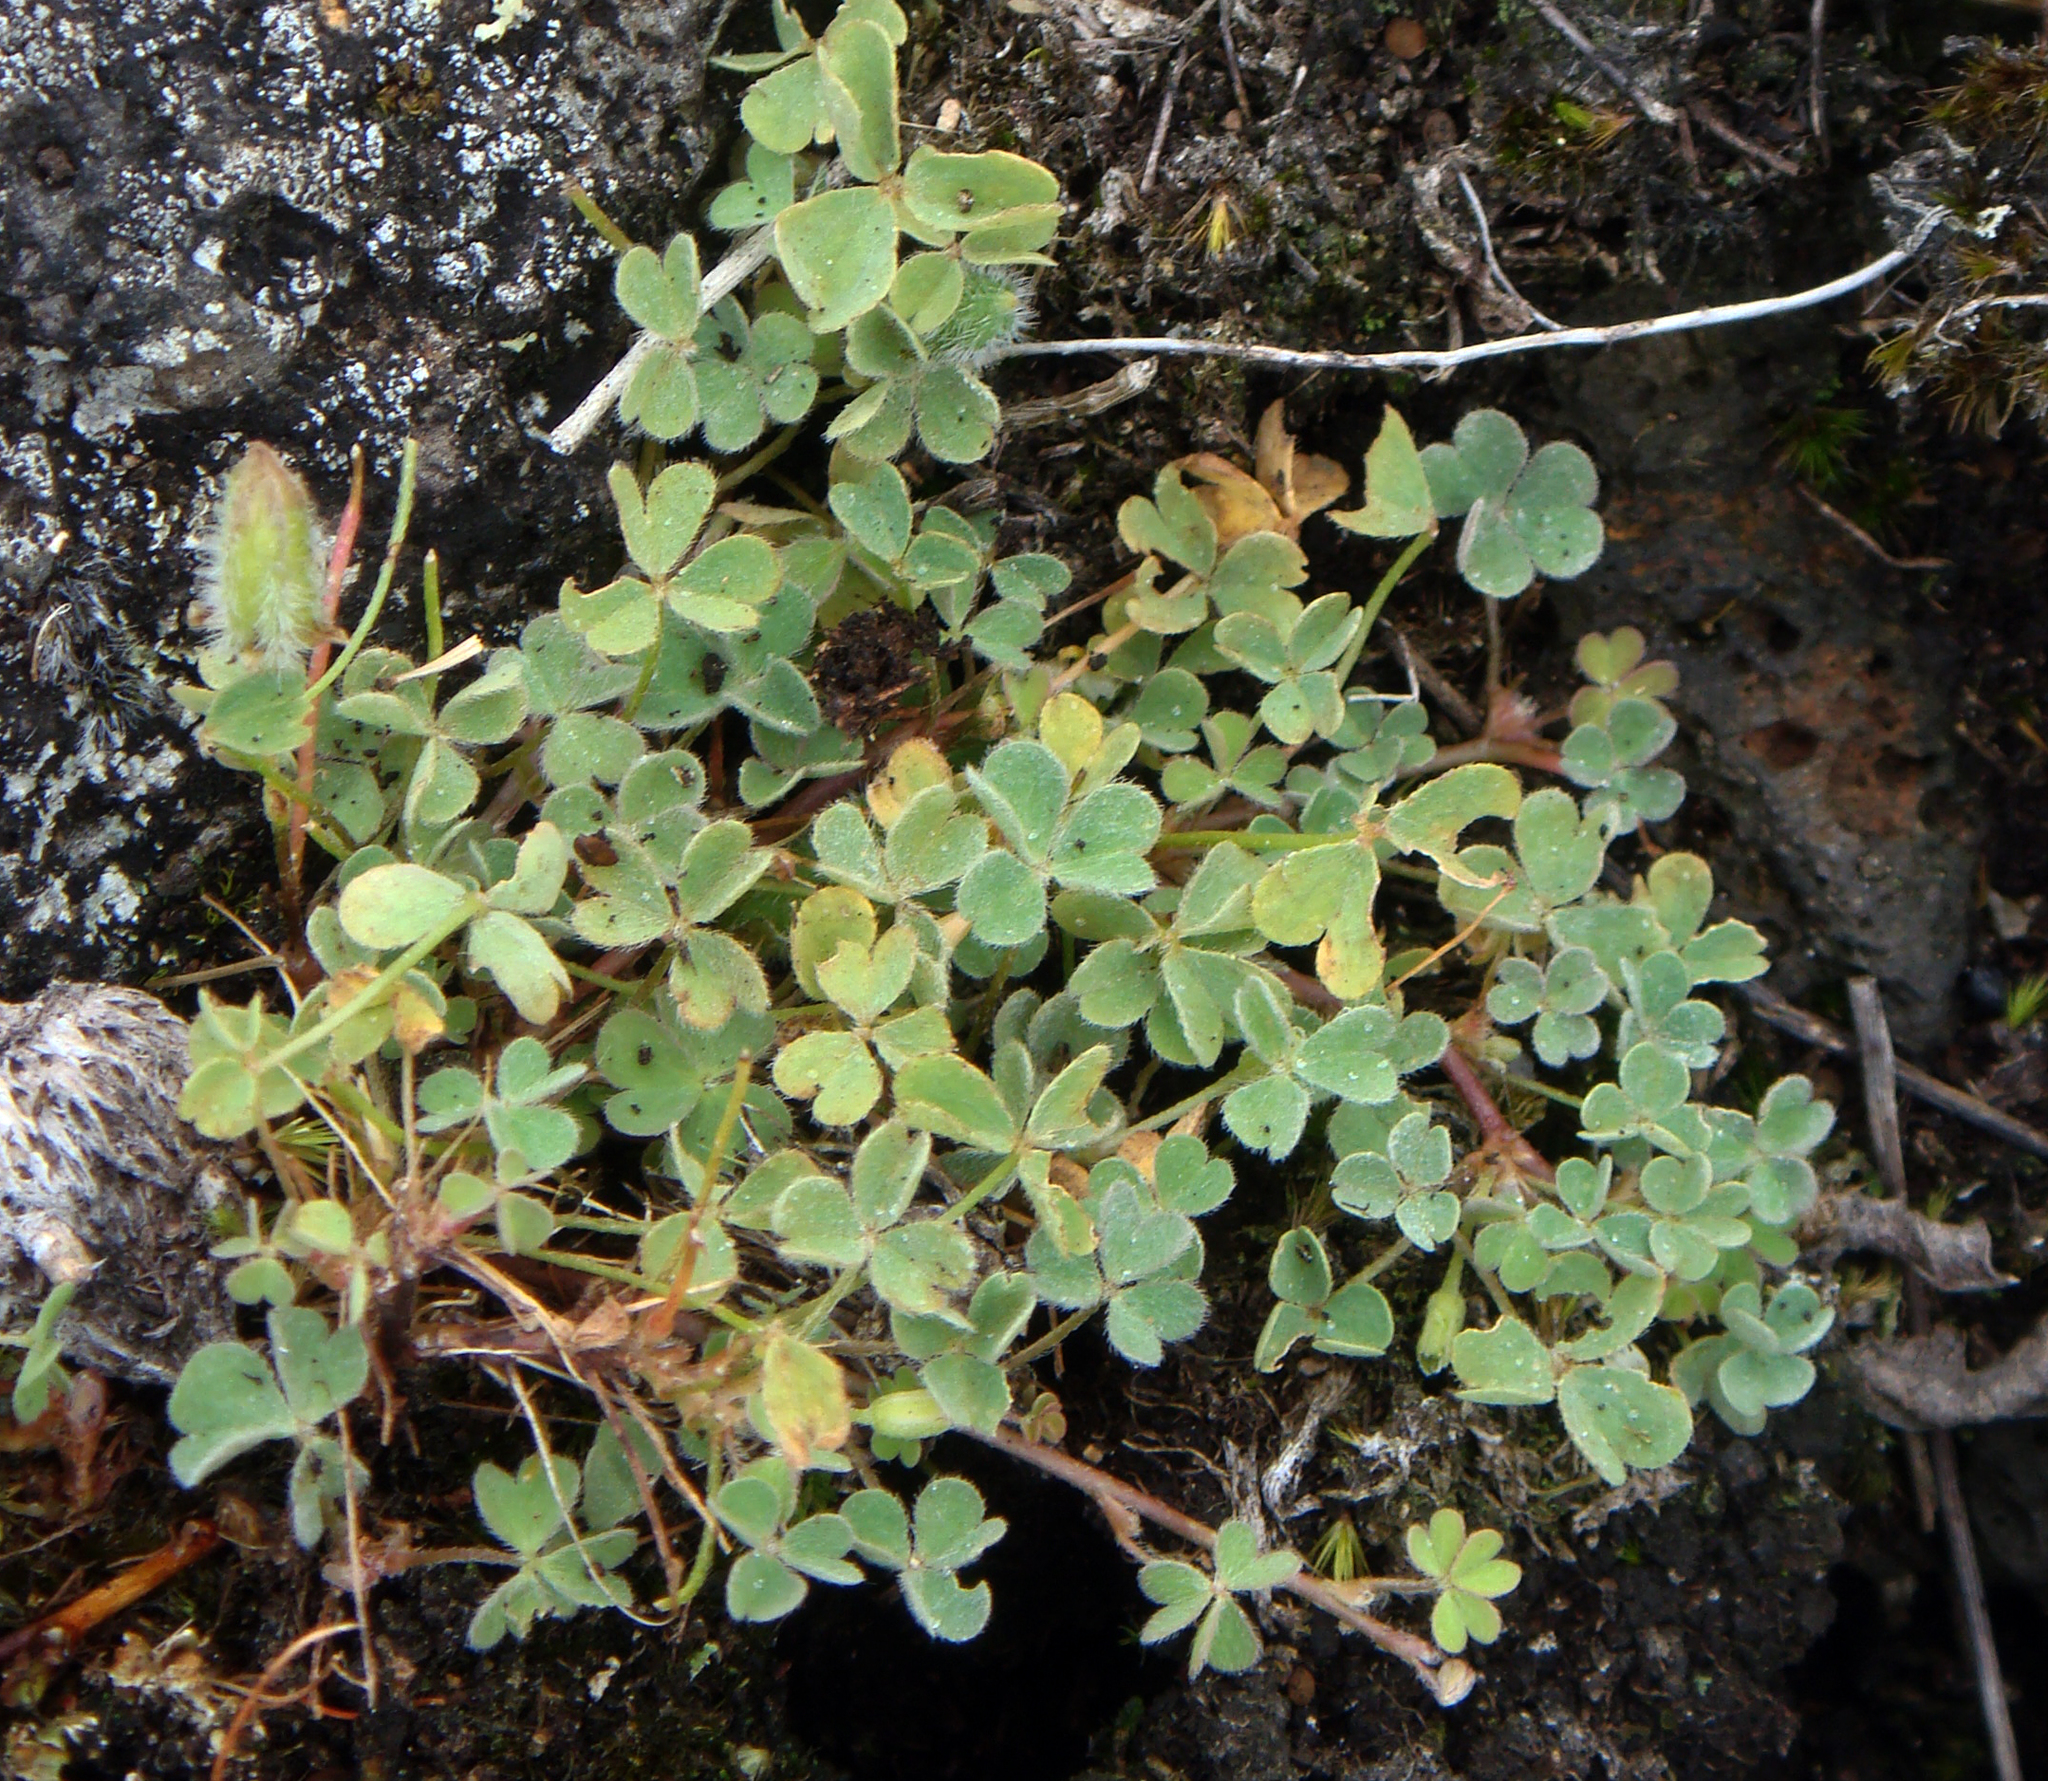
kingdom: Plantae
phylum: Tracheophyta
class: Magnoliopsida
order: Oxalidales
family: Oxalidaceae
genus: Oxalis
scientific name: Oxalis thompsoniae
